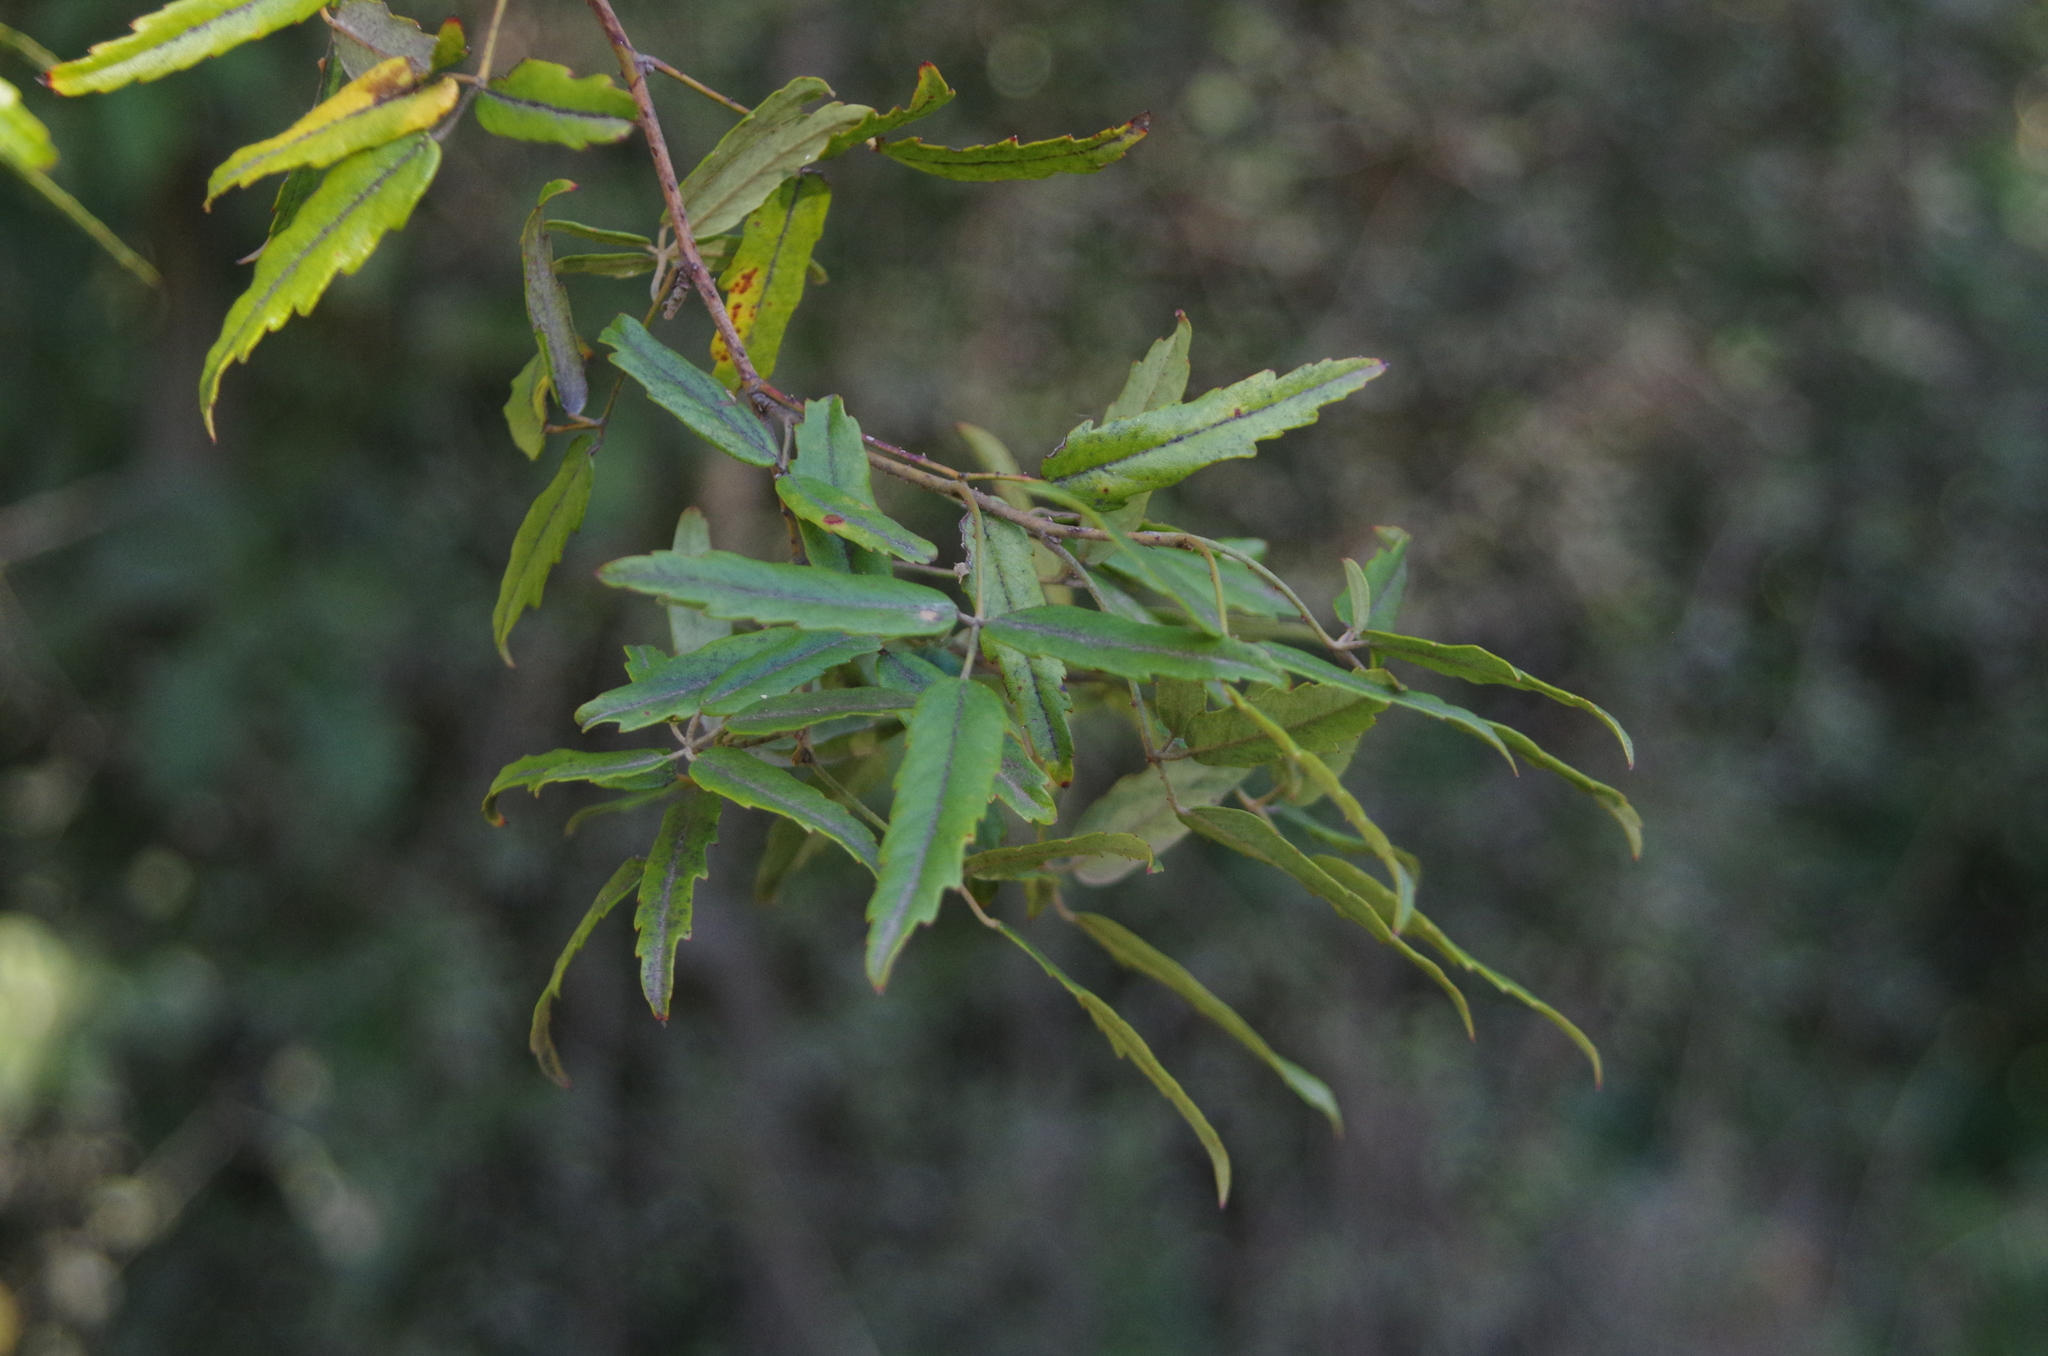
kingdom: Plantae
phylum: Tracheophyta
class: Magnoliopsida
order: Rosales
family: Rosaceae
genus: Rubus
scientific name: Rubus schmidelioides
